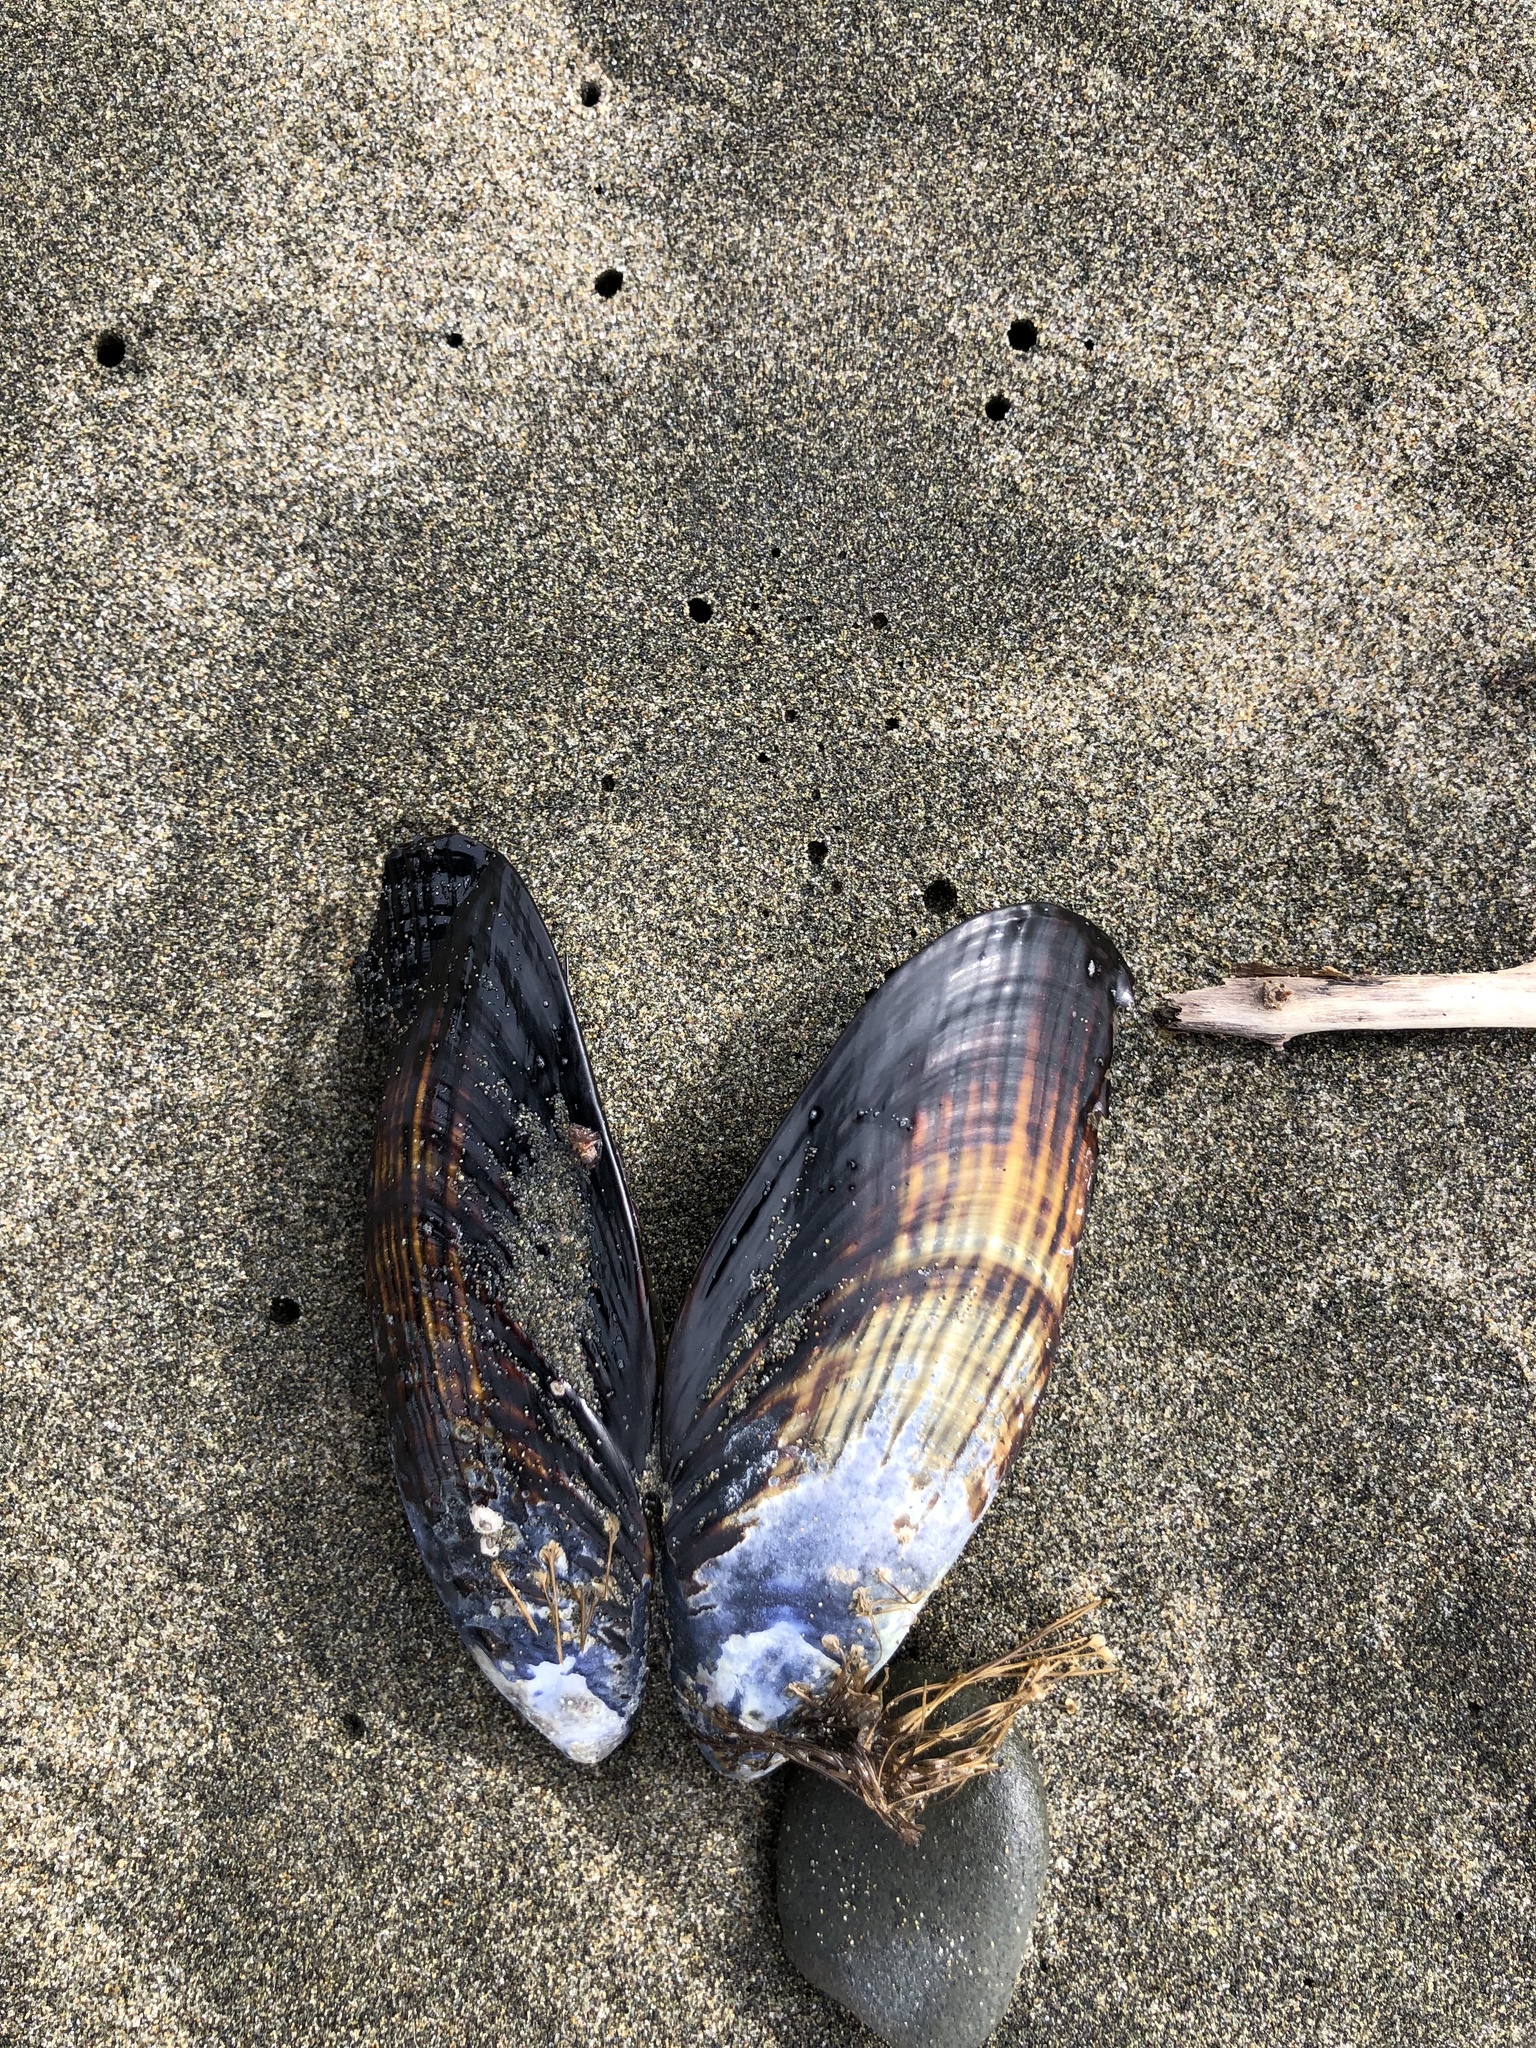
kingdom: Animalia
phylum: Mollusca
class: Bivalvia
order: Mytilida
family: Mytilidae
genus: Mytilus
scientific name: Mytilus californianus
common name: California mussel
